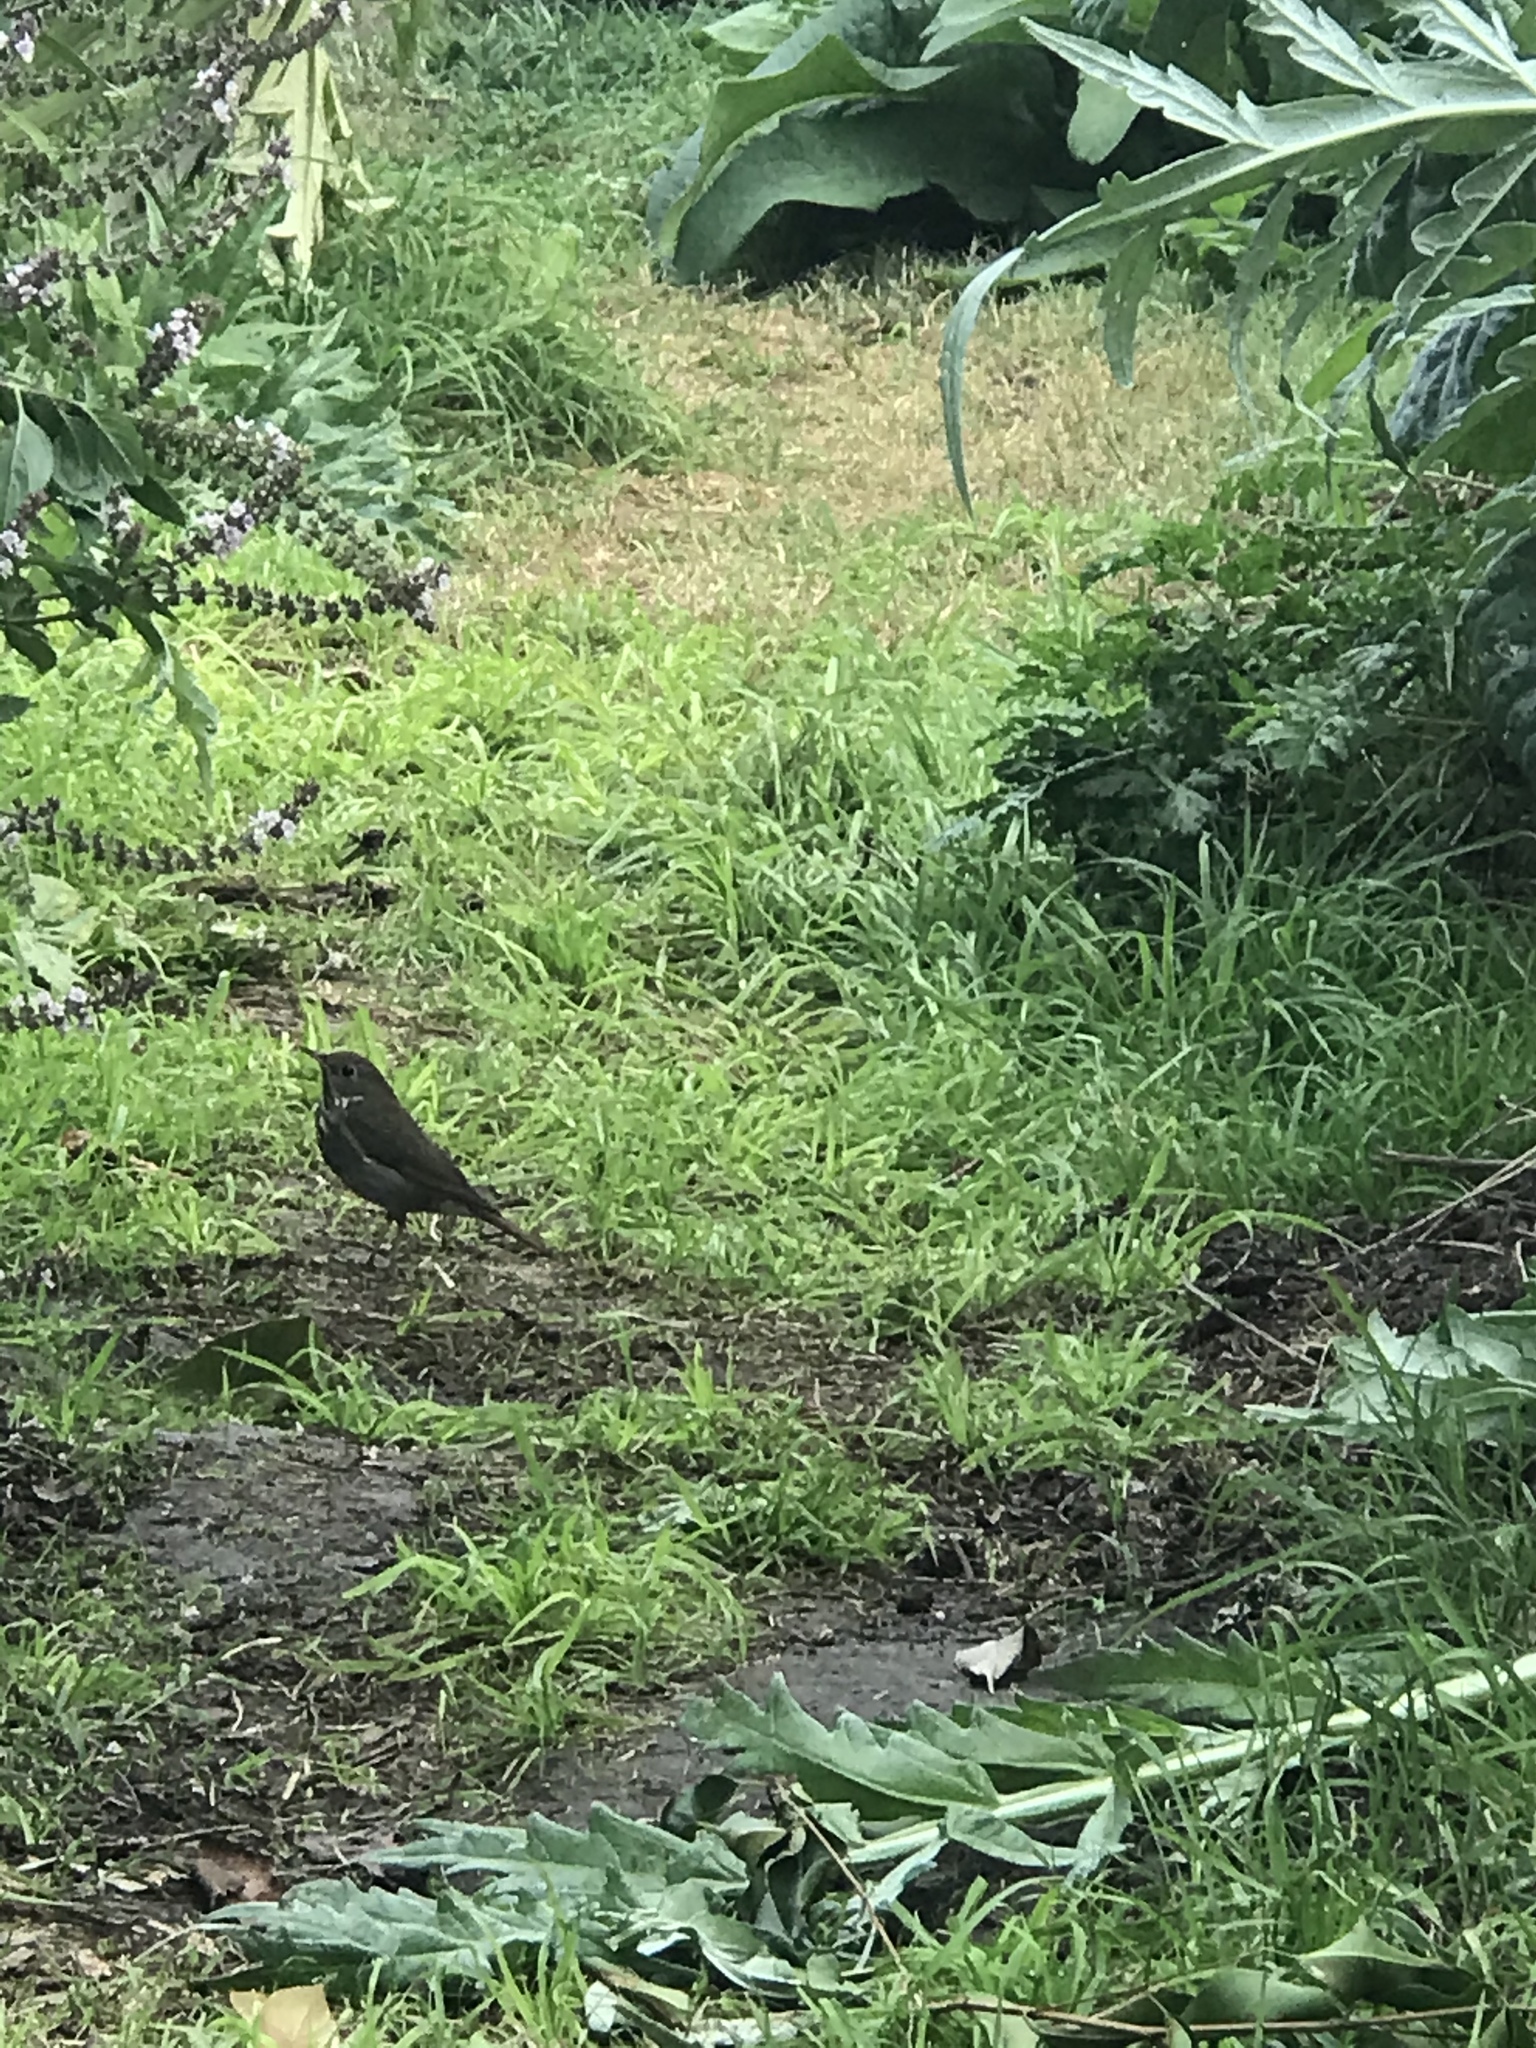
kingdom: Animalia
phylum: Chordata
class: Aves
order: Passeriformes
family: Turdidae
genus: Catharus
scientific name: Catharus guttatus
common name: Hermit thrush
